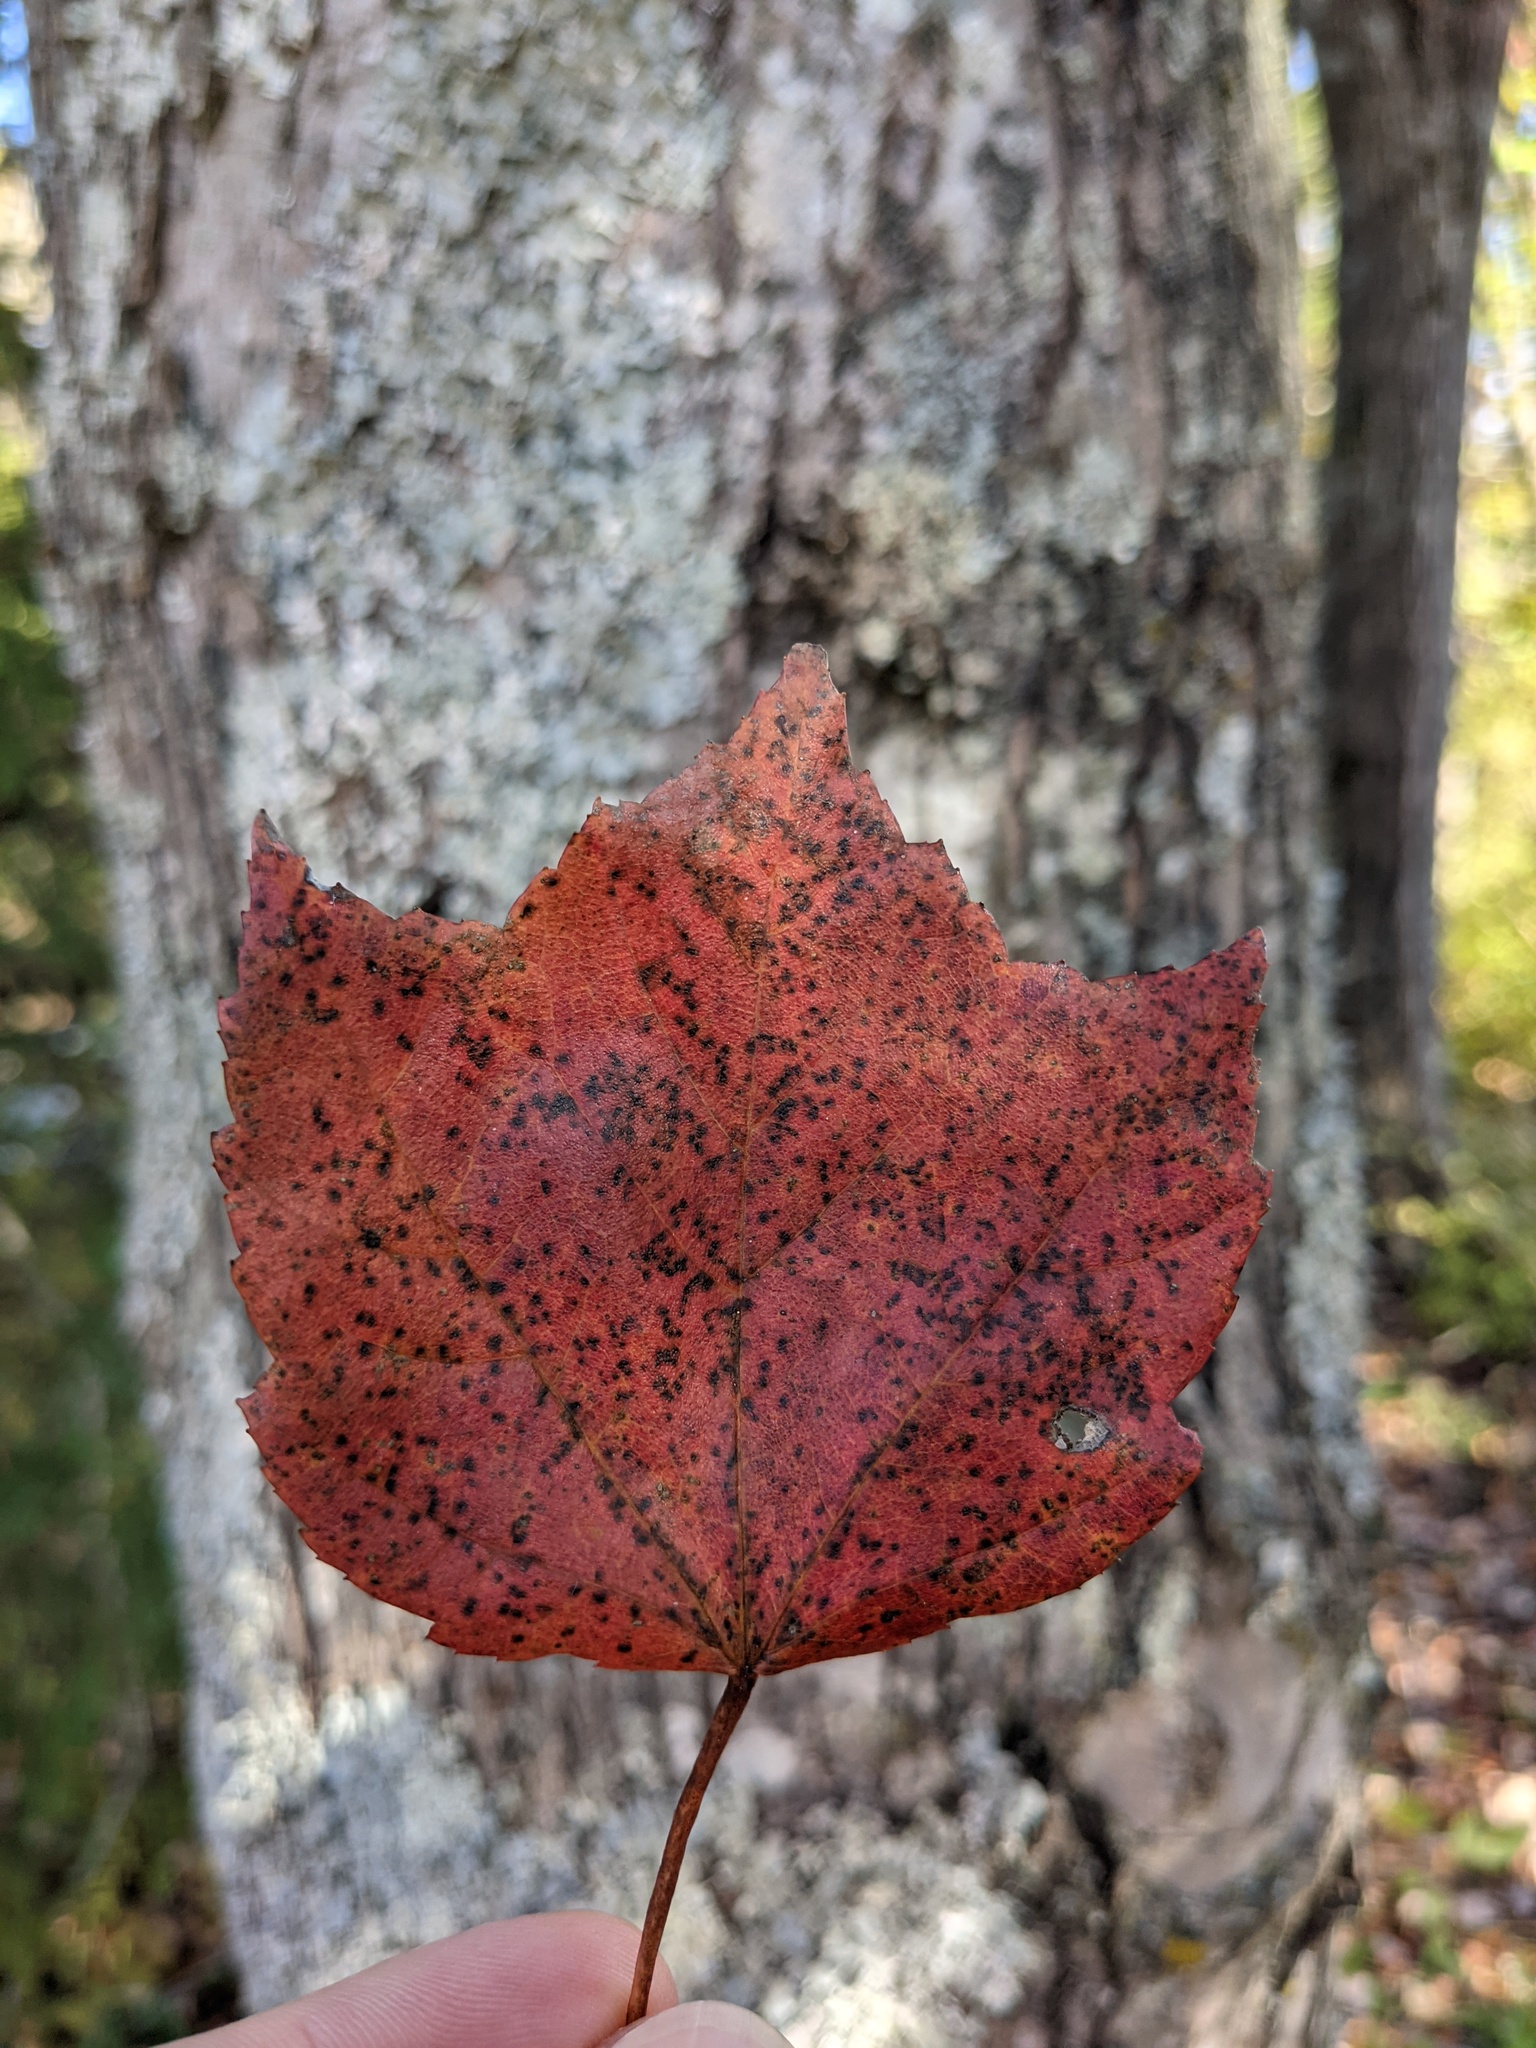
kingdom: Plantae
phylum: Tracheophyta
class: Magnoliopsida
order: Sapindales
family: Sapindaceae
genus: Acer
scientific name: Acer rubrum
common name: Red maple
